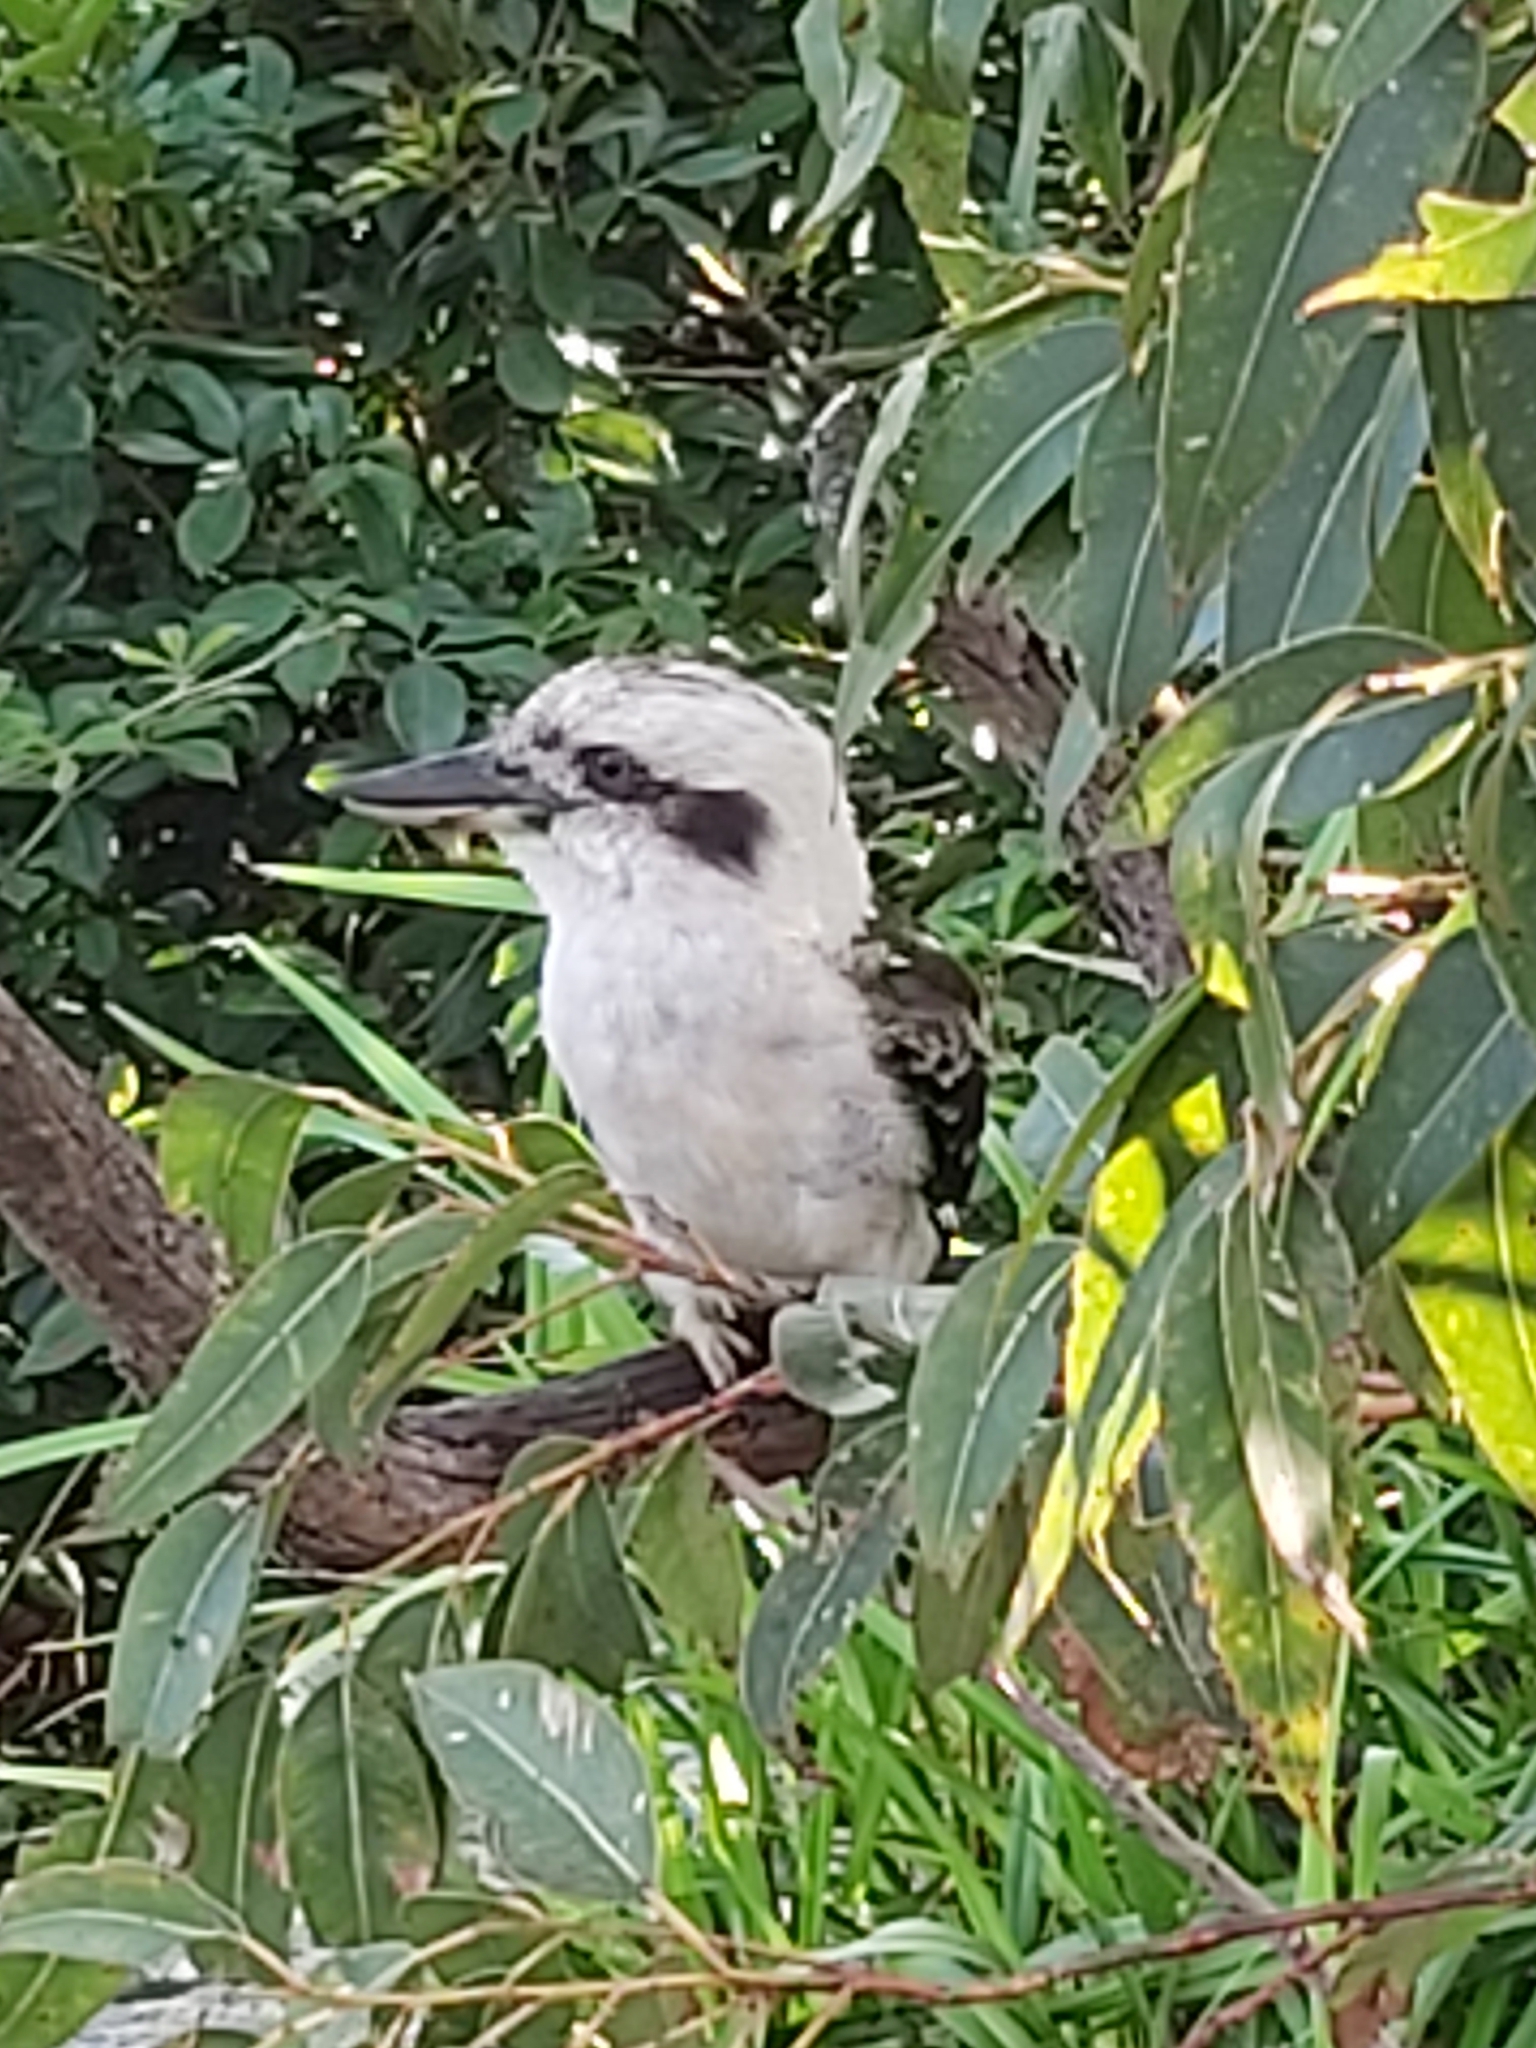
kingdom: Animalia
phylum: Chordata
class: Aves
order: Coraciiformes
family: Alcedinidae
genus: Dacelo
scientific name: Dacelo novaeguineae
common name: Laughing kookaburra
